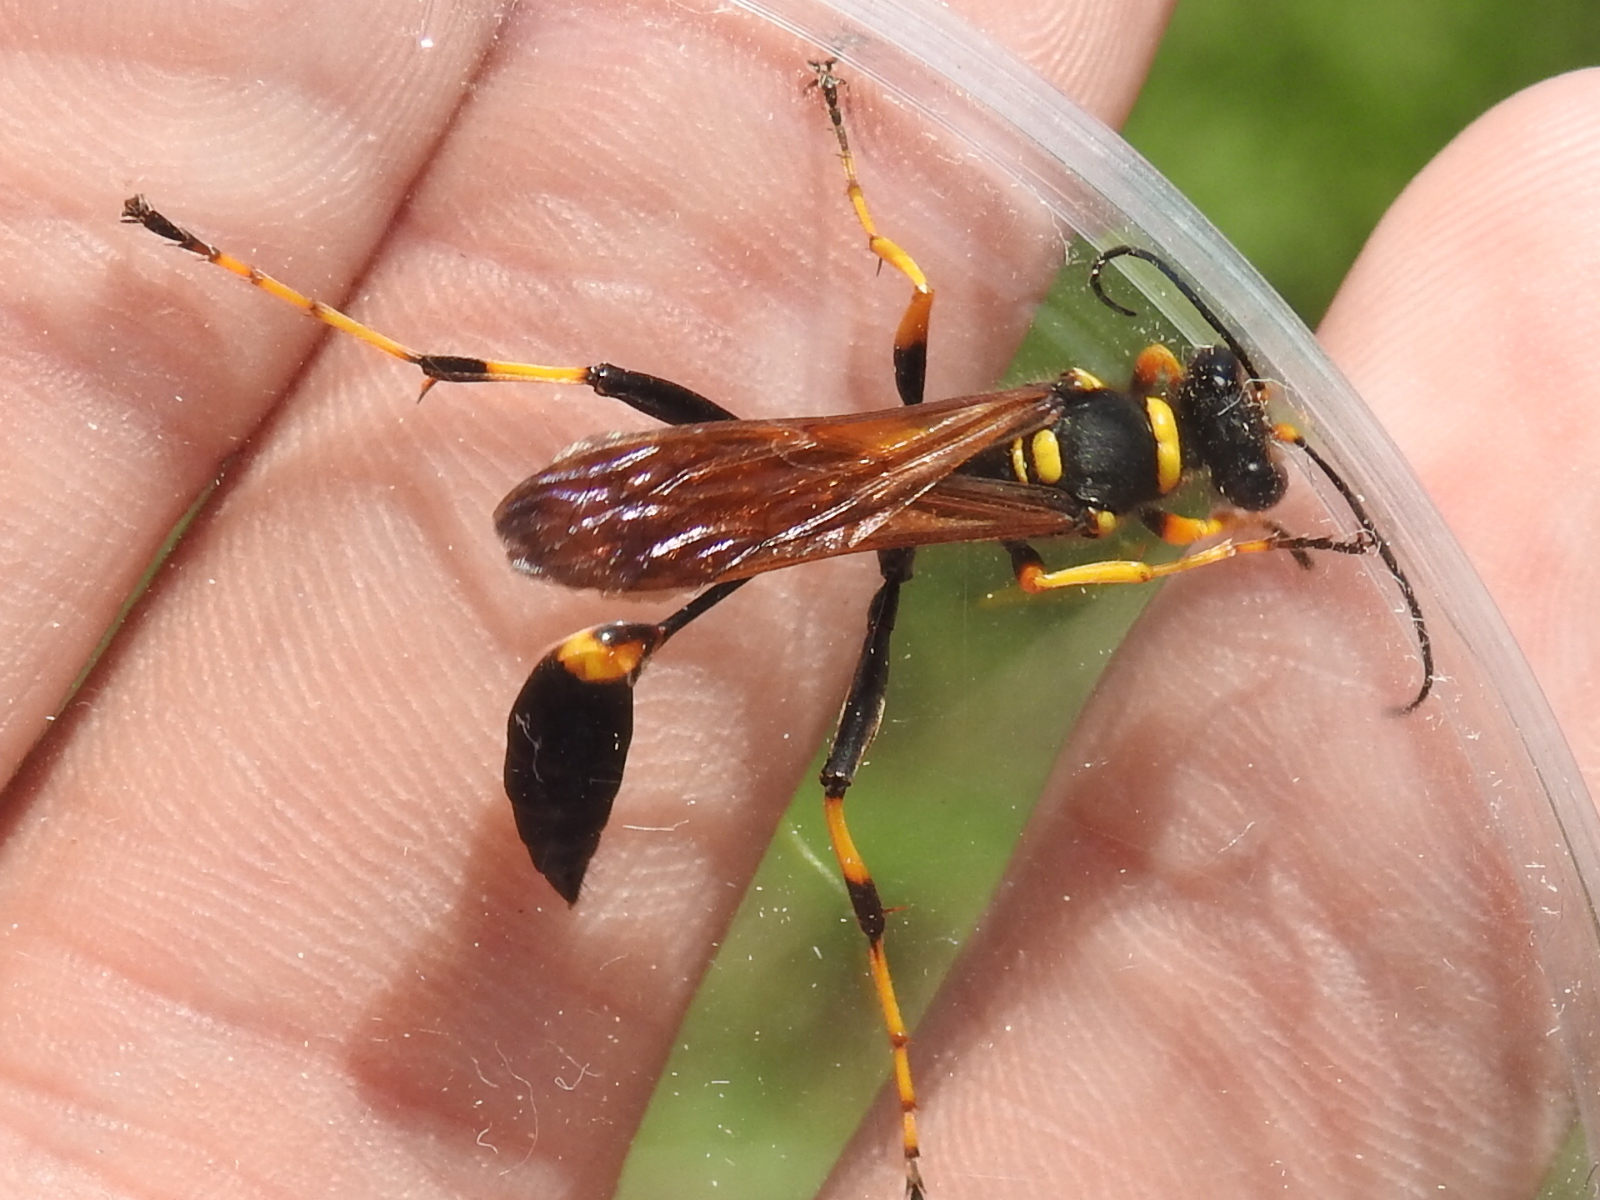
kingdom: Animalia
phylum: Arthropoda
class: Insecta
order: Hymenoptera
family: Sphecidae
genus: Sceliphron
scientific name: Sceliphron caementarium
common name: Mud dauber
